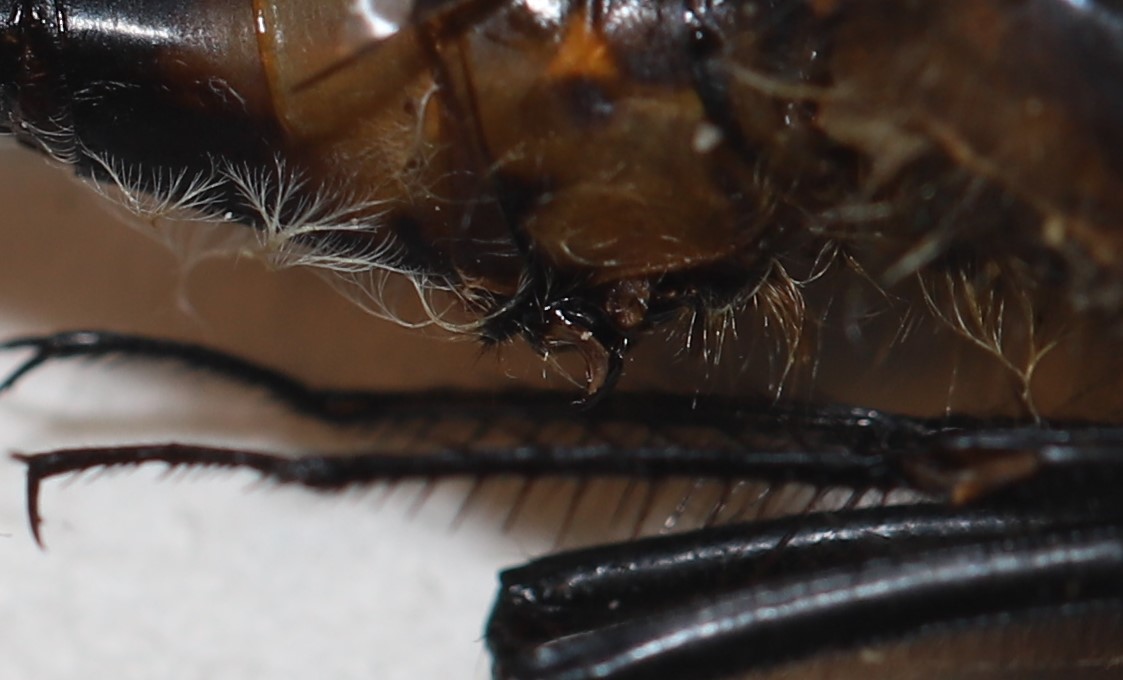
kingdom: Animalia
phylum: Arthropoda
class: Insecta
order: Odonata
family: Libellulidae
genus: Leucorrhinia
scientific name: Leucorrhinia proxima
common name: Belted whiteface
